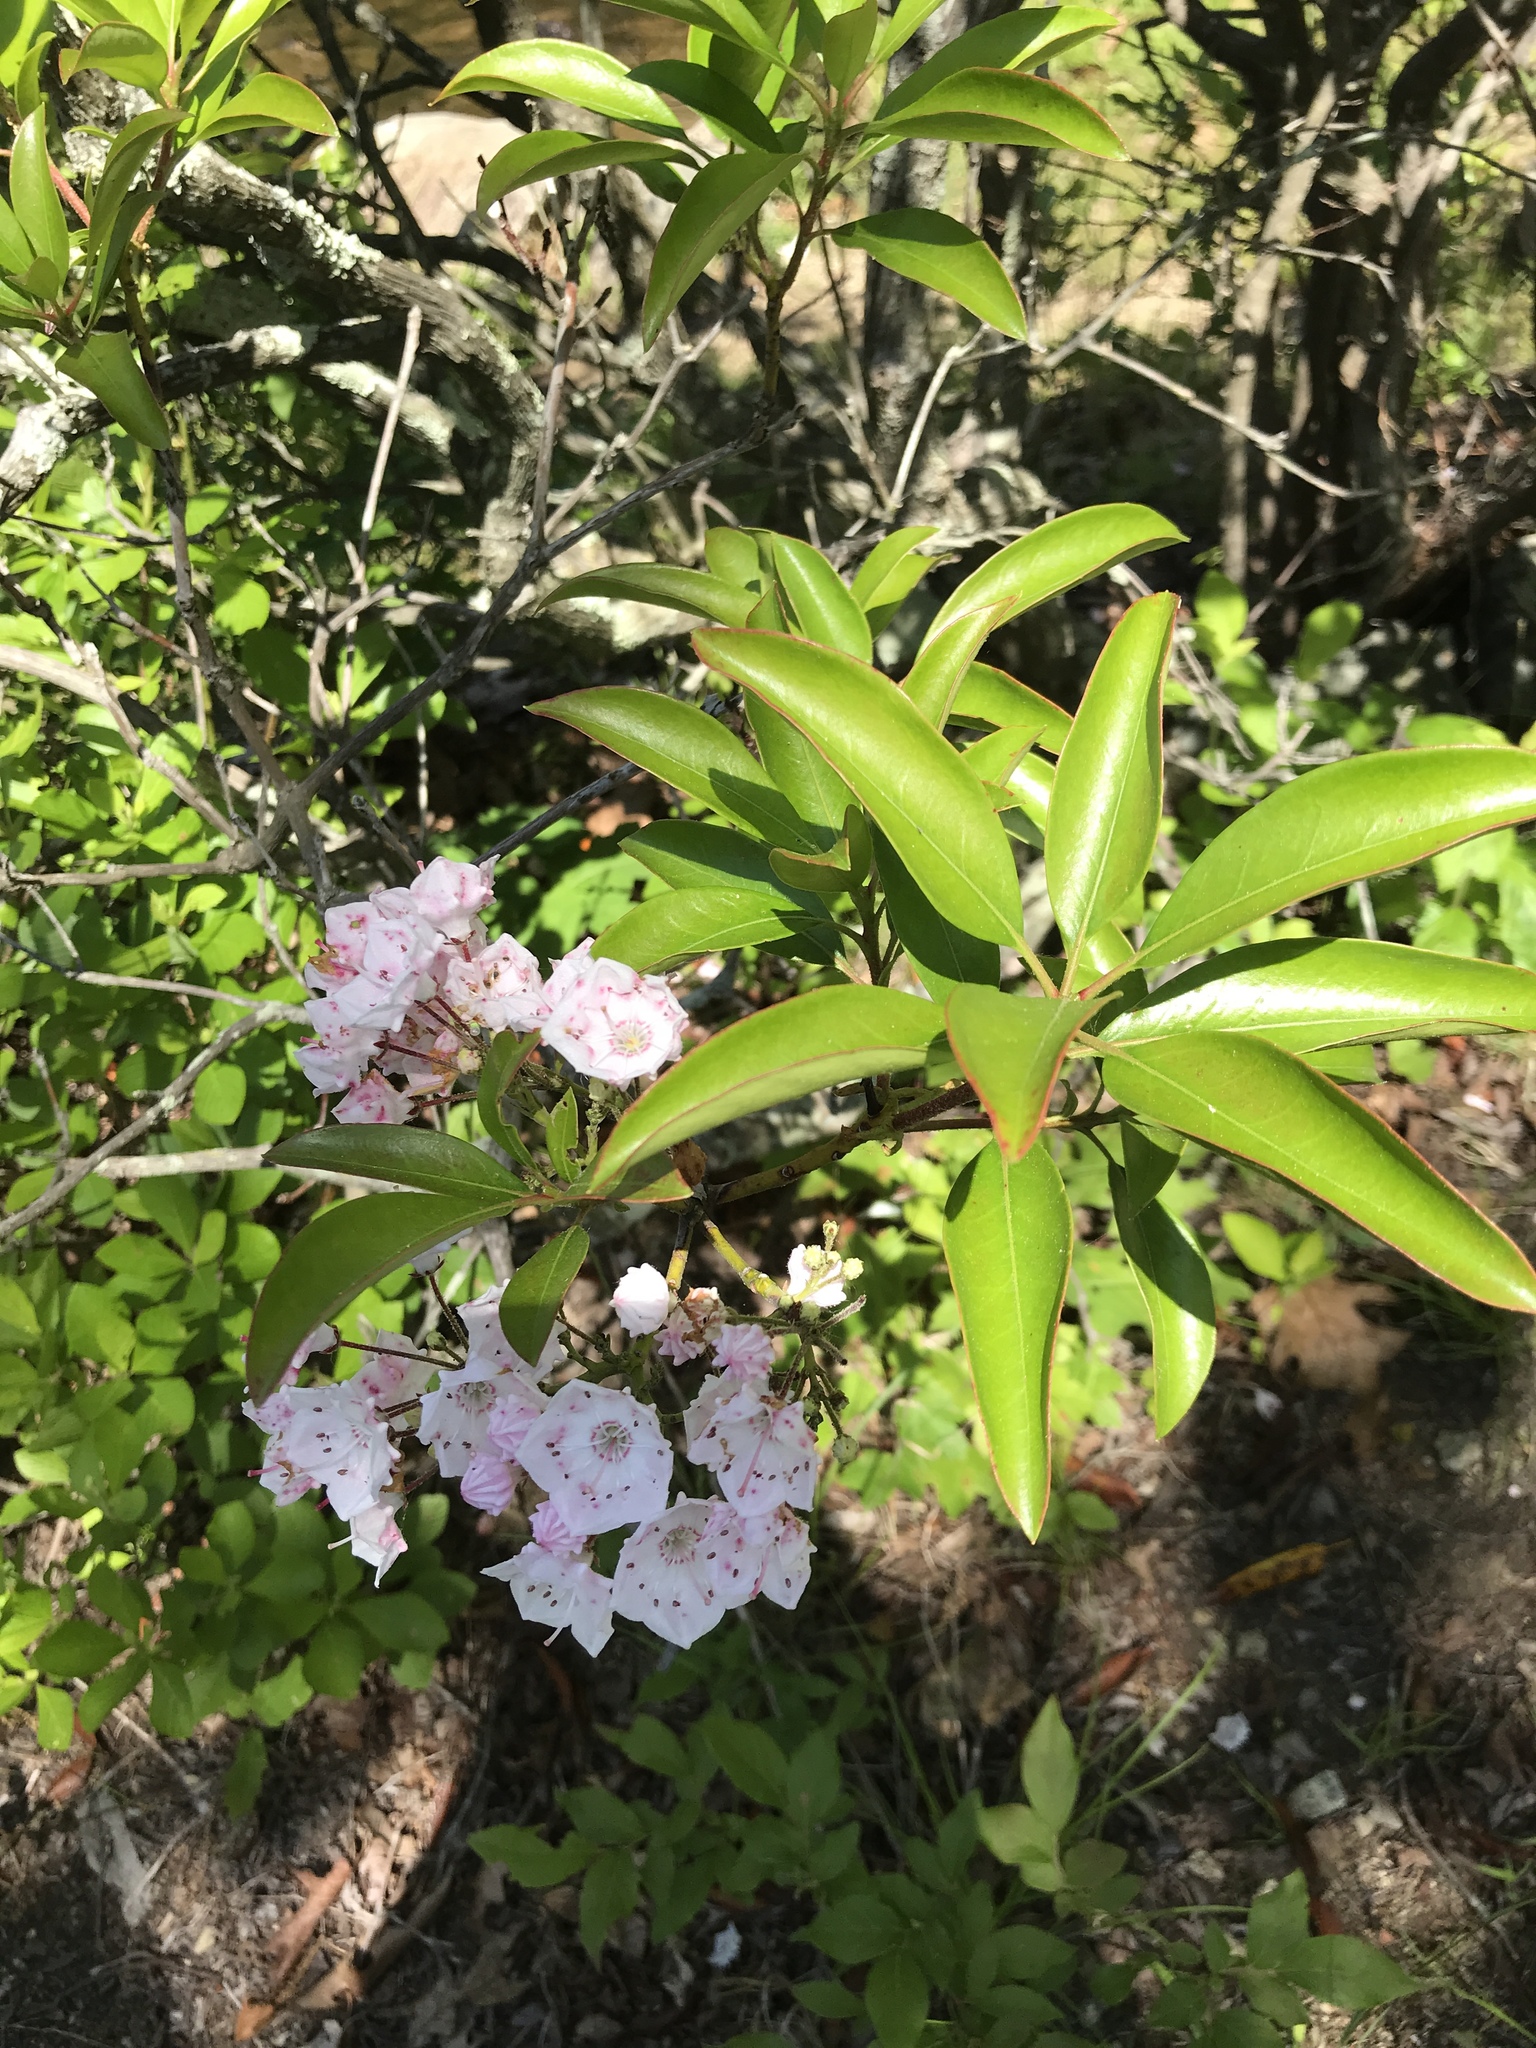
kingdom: Plantae
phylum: Tracheophyta
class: Magnoliopsida
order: Ericales
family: Ericaceae
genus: Kalmia
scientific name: Kalmia latifolia
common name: Mountain-laurel
